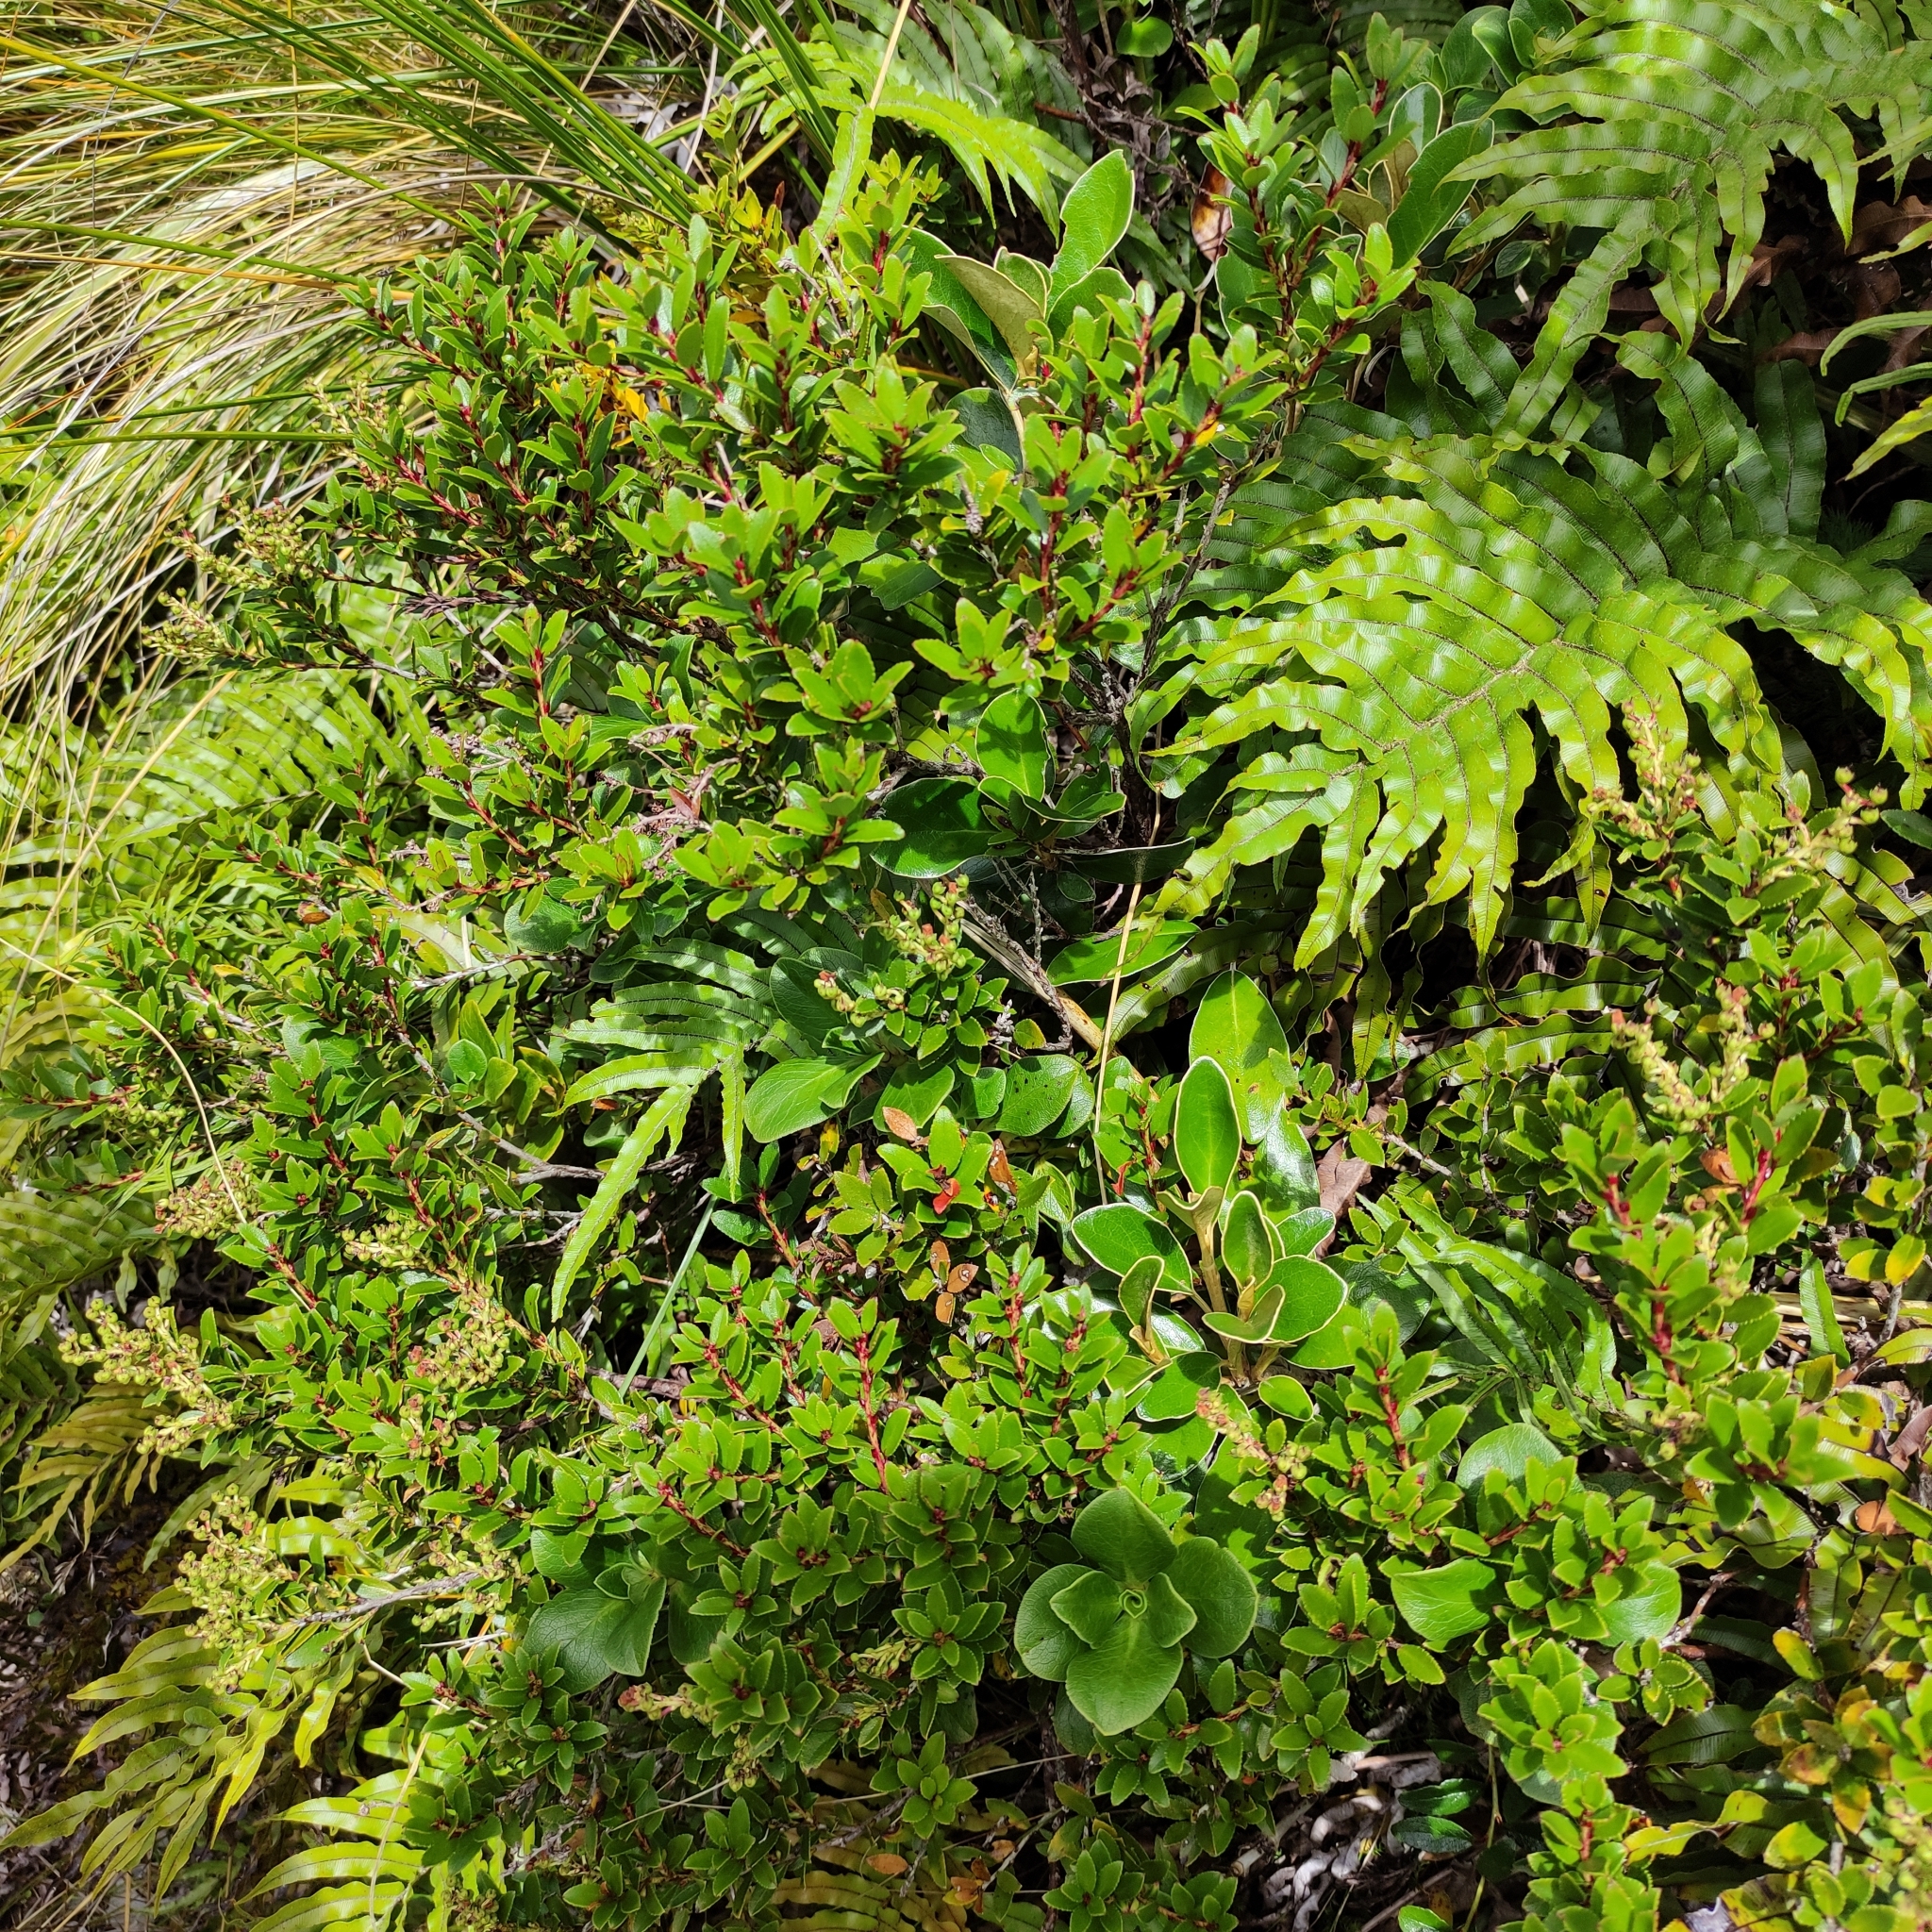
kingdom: Plantae
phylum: Tracheophyta
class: Magnoliopsida
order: Ericales
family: Ericaceae
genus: Gaultheria
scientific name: Gaultheria rupestris
